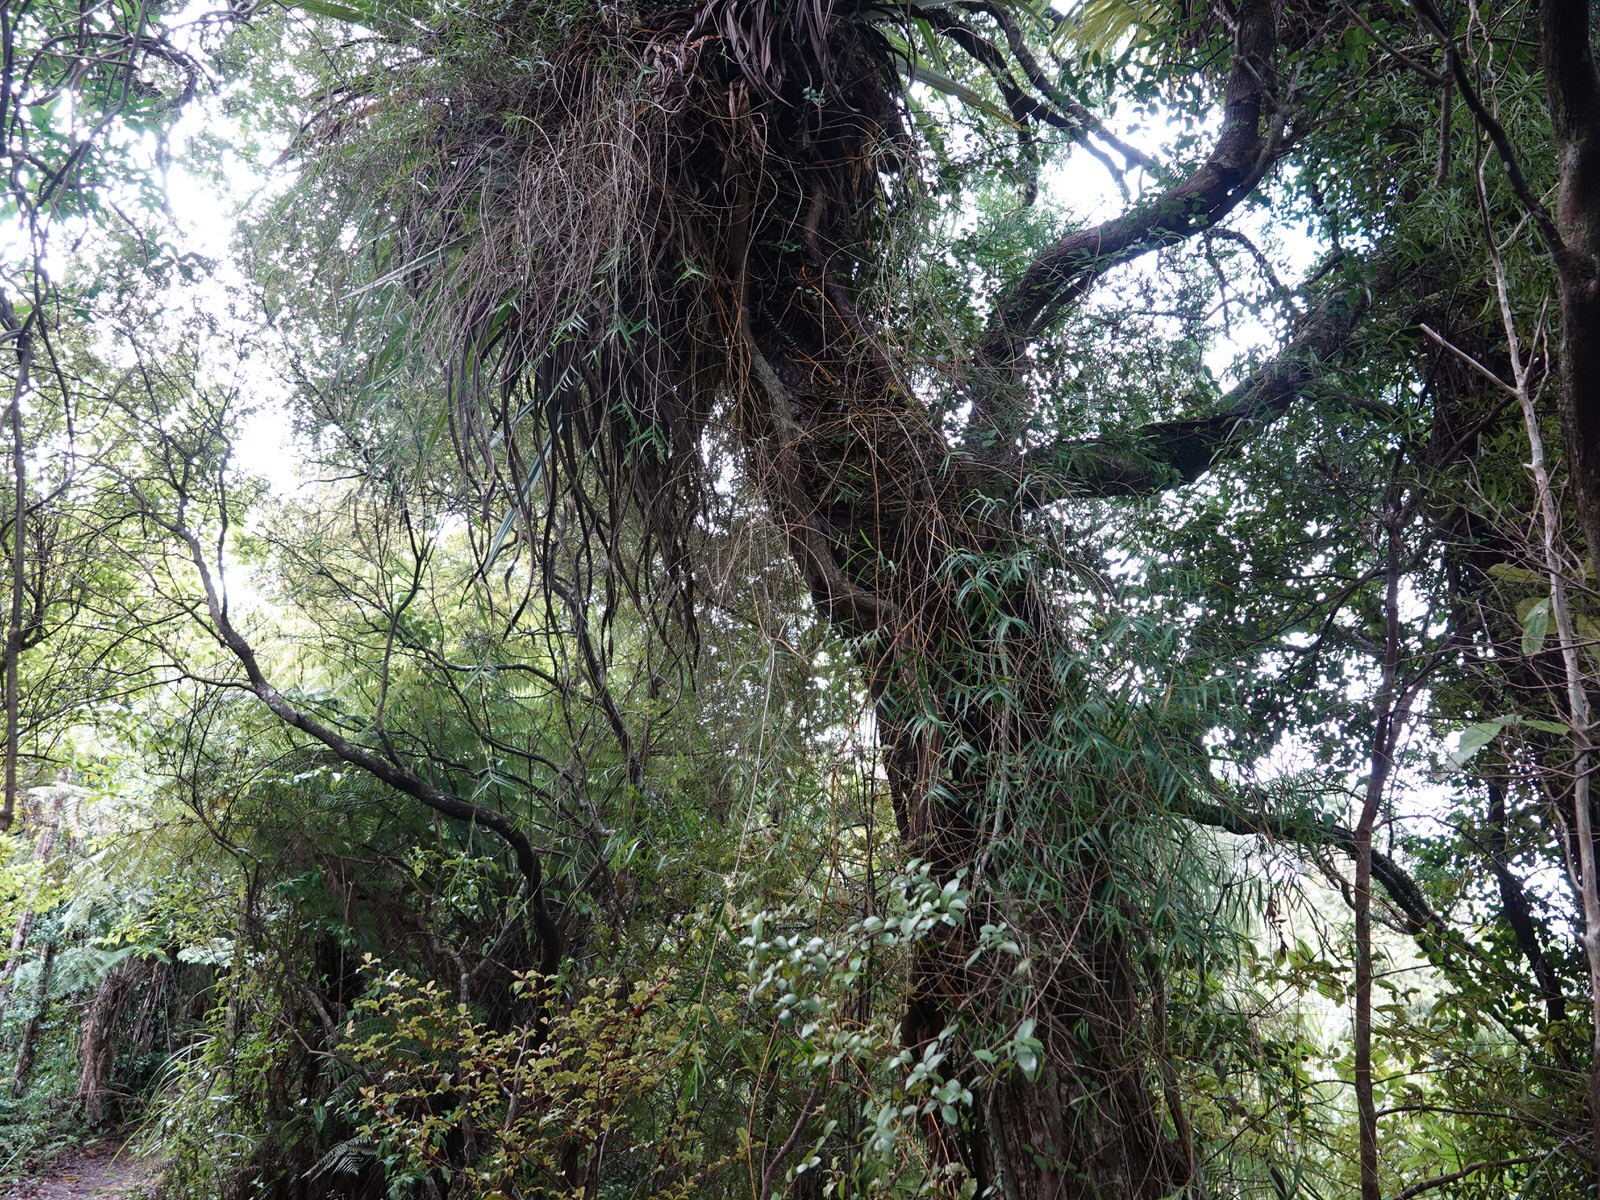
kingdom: Plantae
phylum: Tracheophyta
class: Liliopsida
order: Asparagales
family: Orchidaceae
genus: Dendrobium
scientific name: Dendrobium cunninghamii
